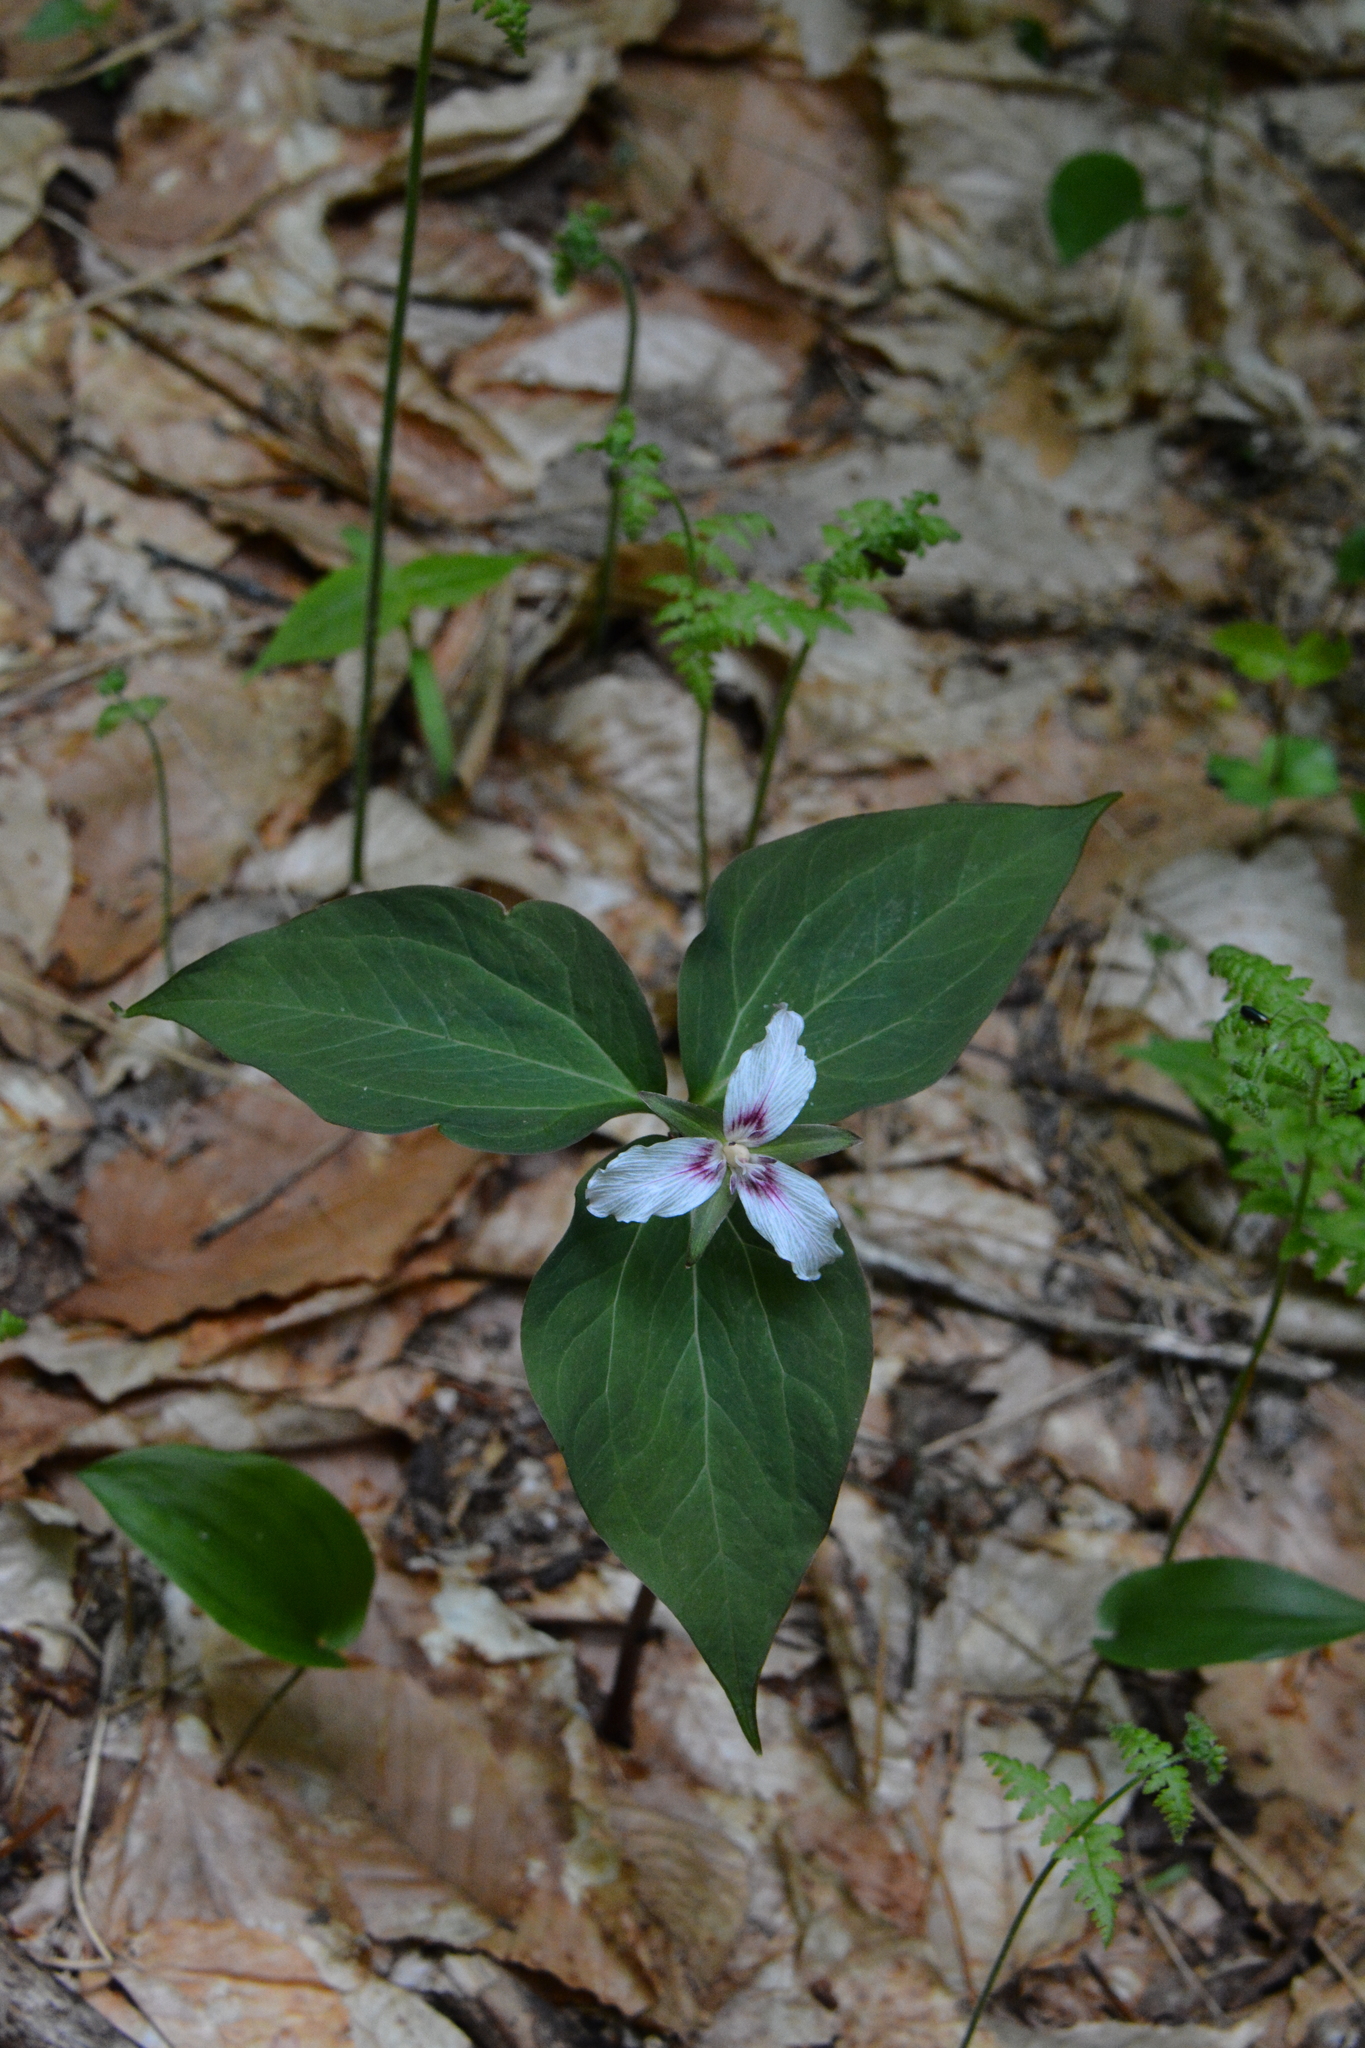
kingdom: Plantae
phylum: Tracheophyta
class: Liliopsida
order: Liliales
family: Melanthiaceae
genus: Trillium
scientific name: Trillium undulatum
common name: Paint trillium
